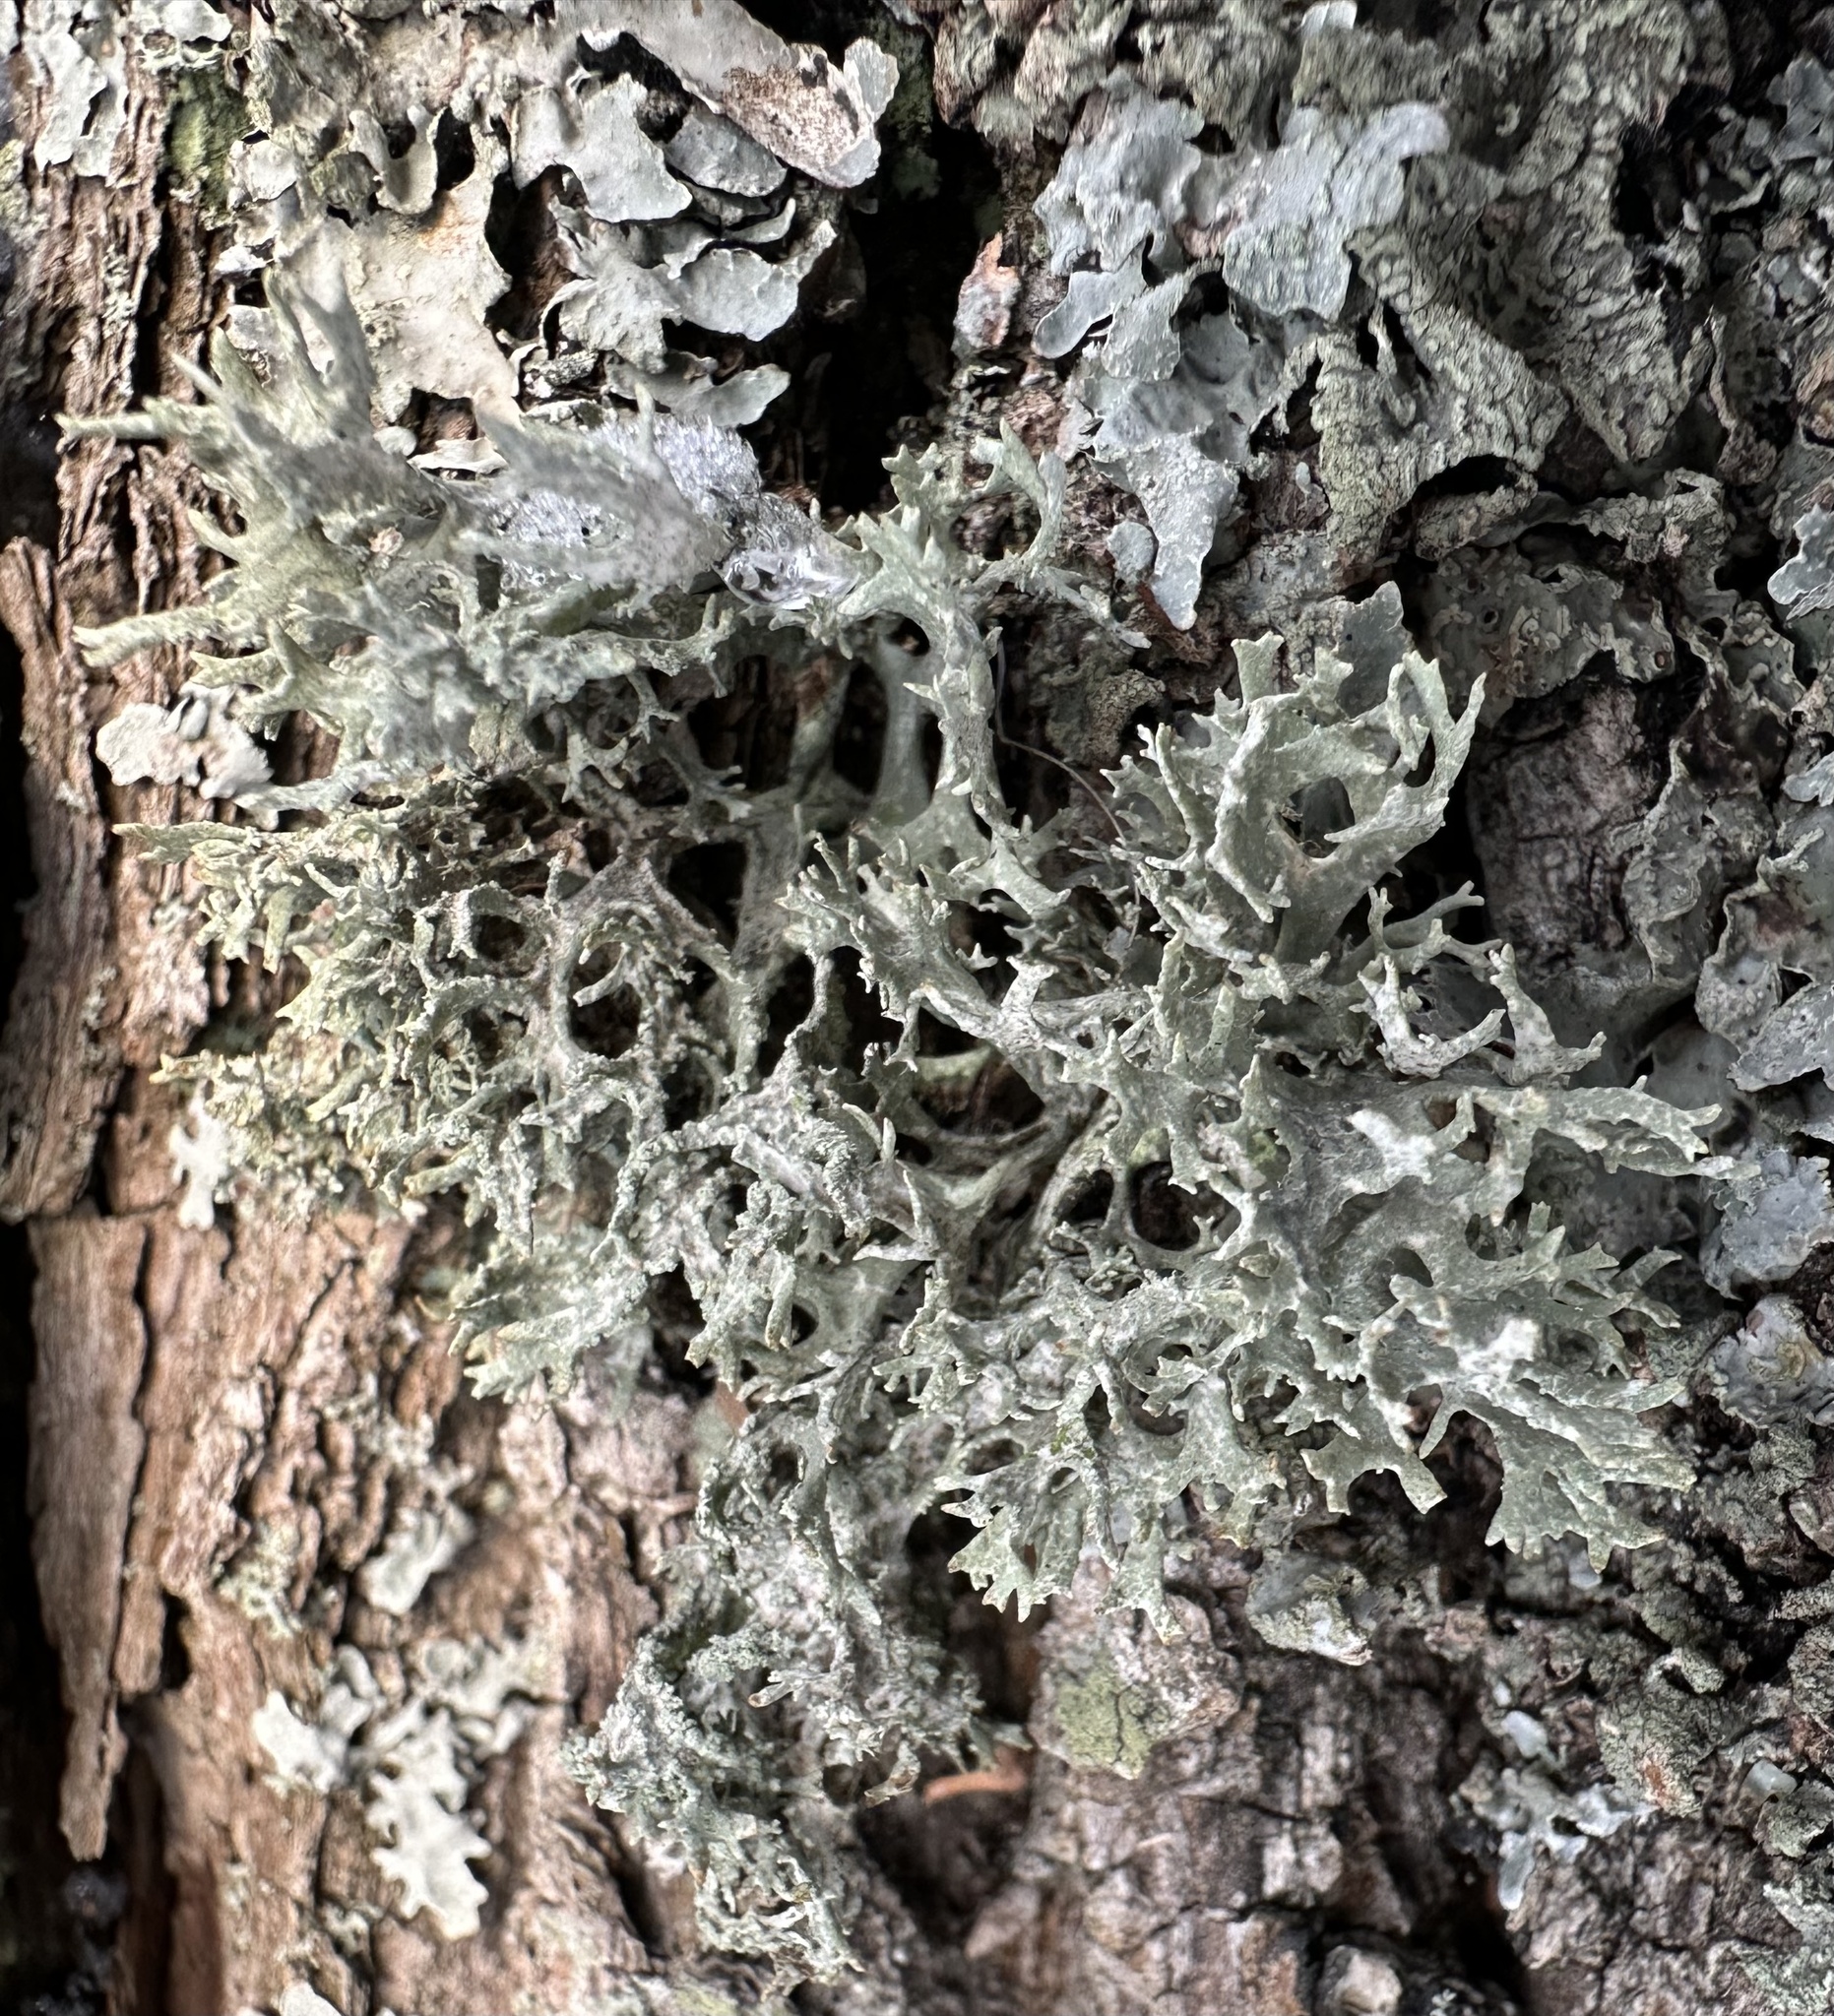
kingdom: Fungi
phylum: Ascomycota
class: Lecanoromycetes
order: Lecanorales
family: Parmeliaceae
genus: Evernia
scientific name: Evernia prunastri
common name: Oak moss
